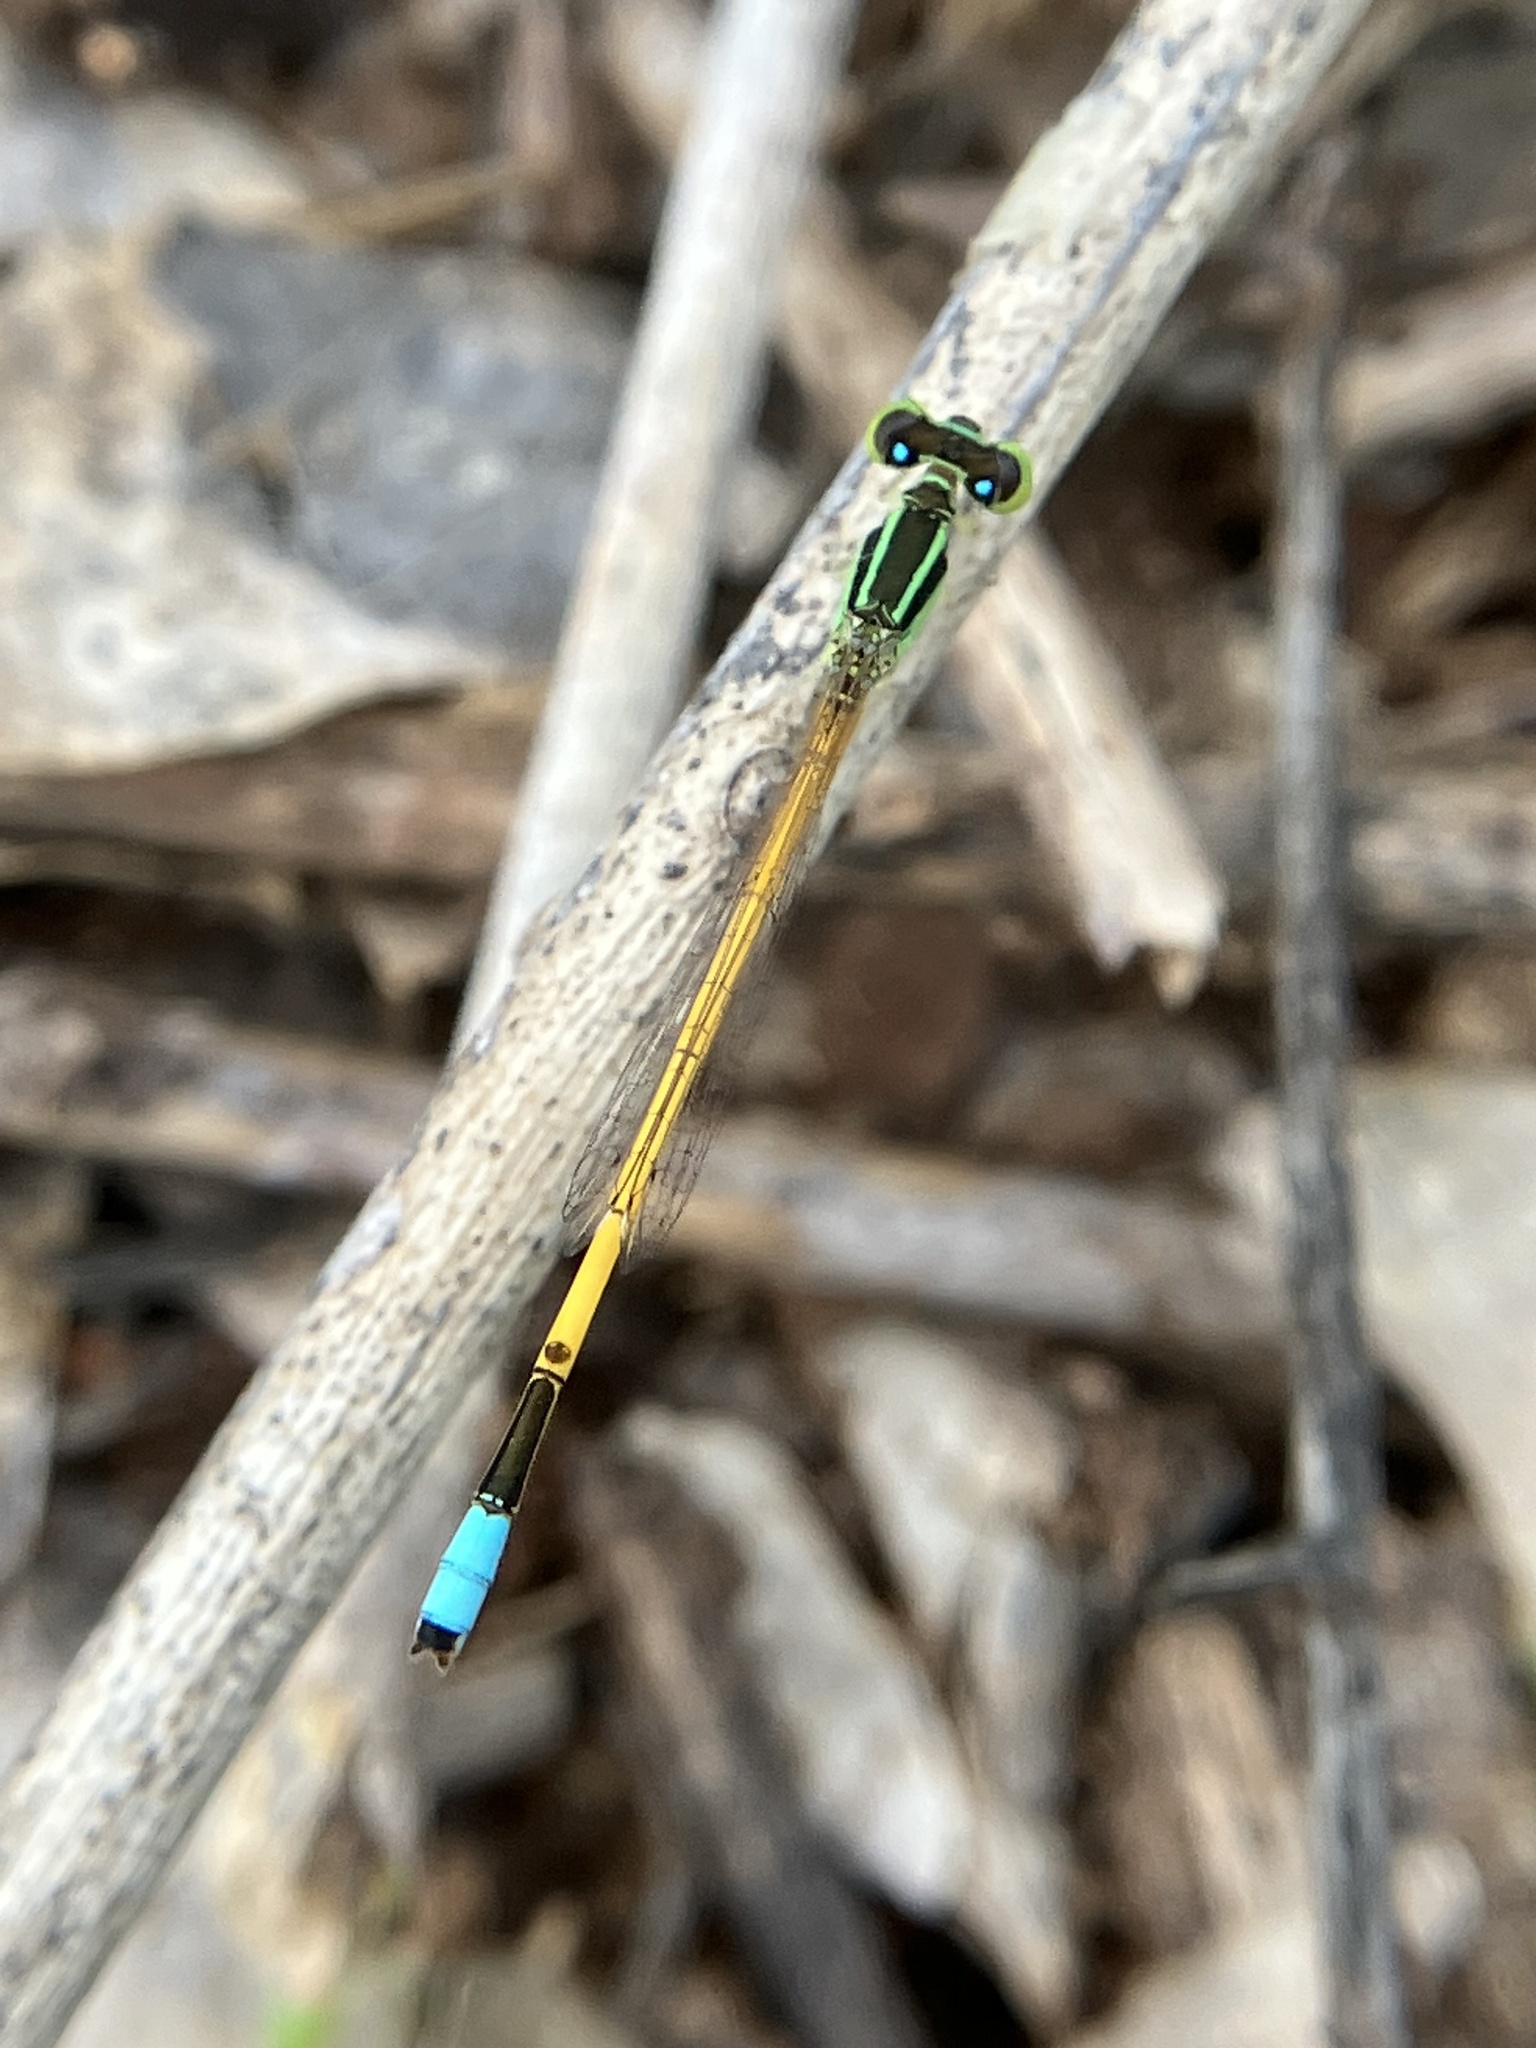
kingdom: Animalia
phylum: Arthropoda
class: Insecta
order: Odonata
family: Coenagrionidae
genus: Ischnura
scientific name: Ischnura rubilio
